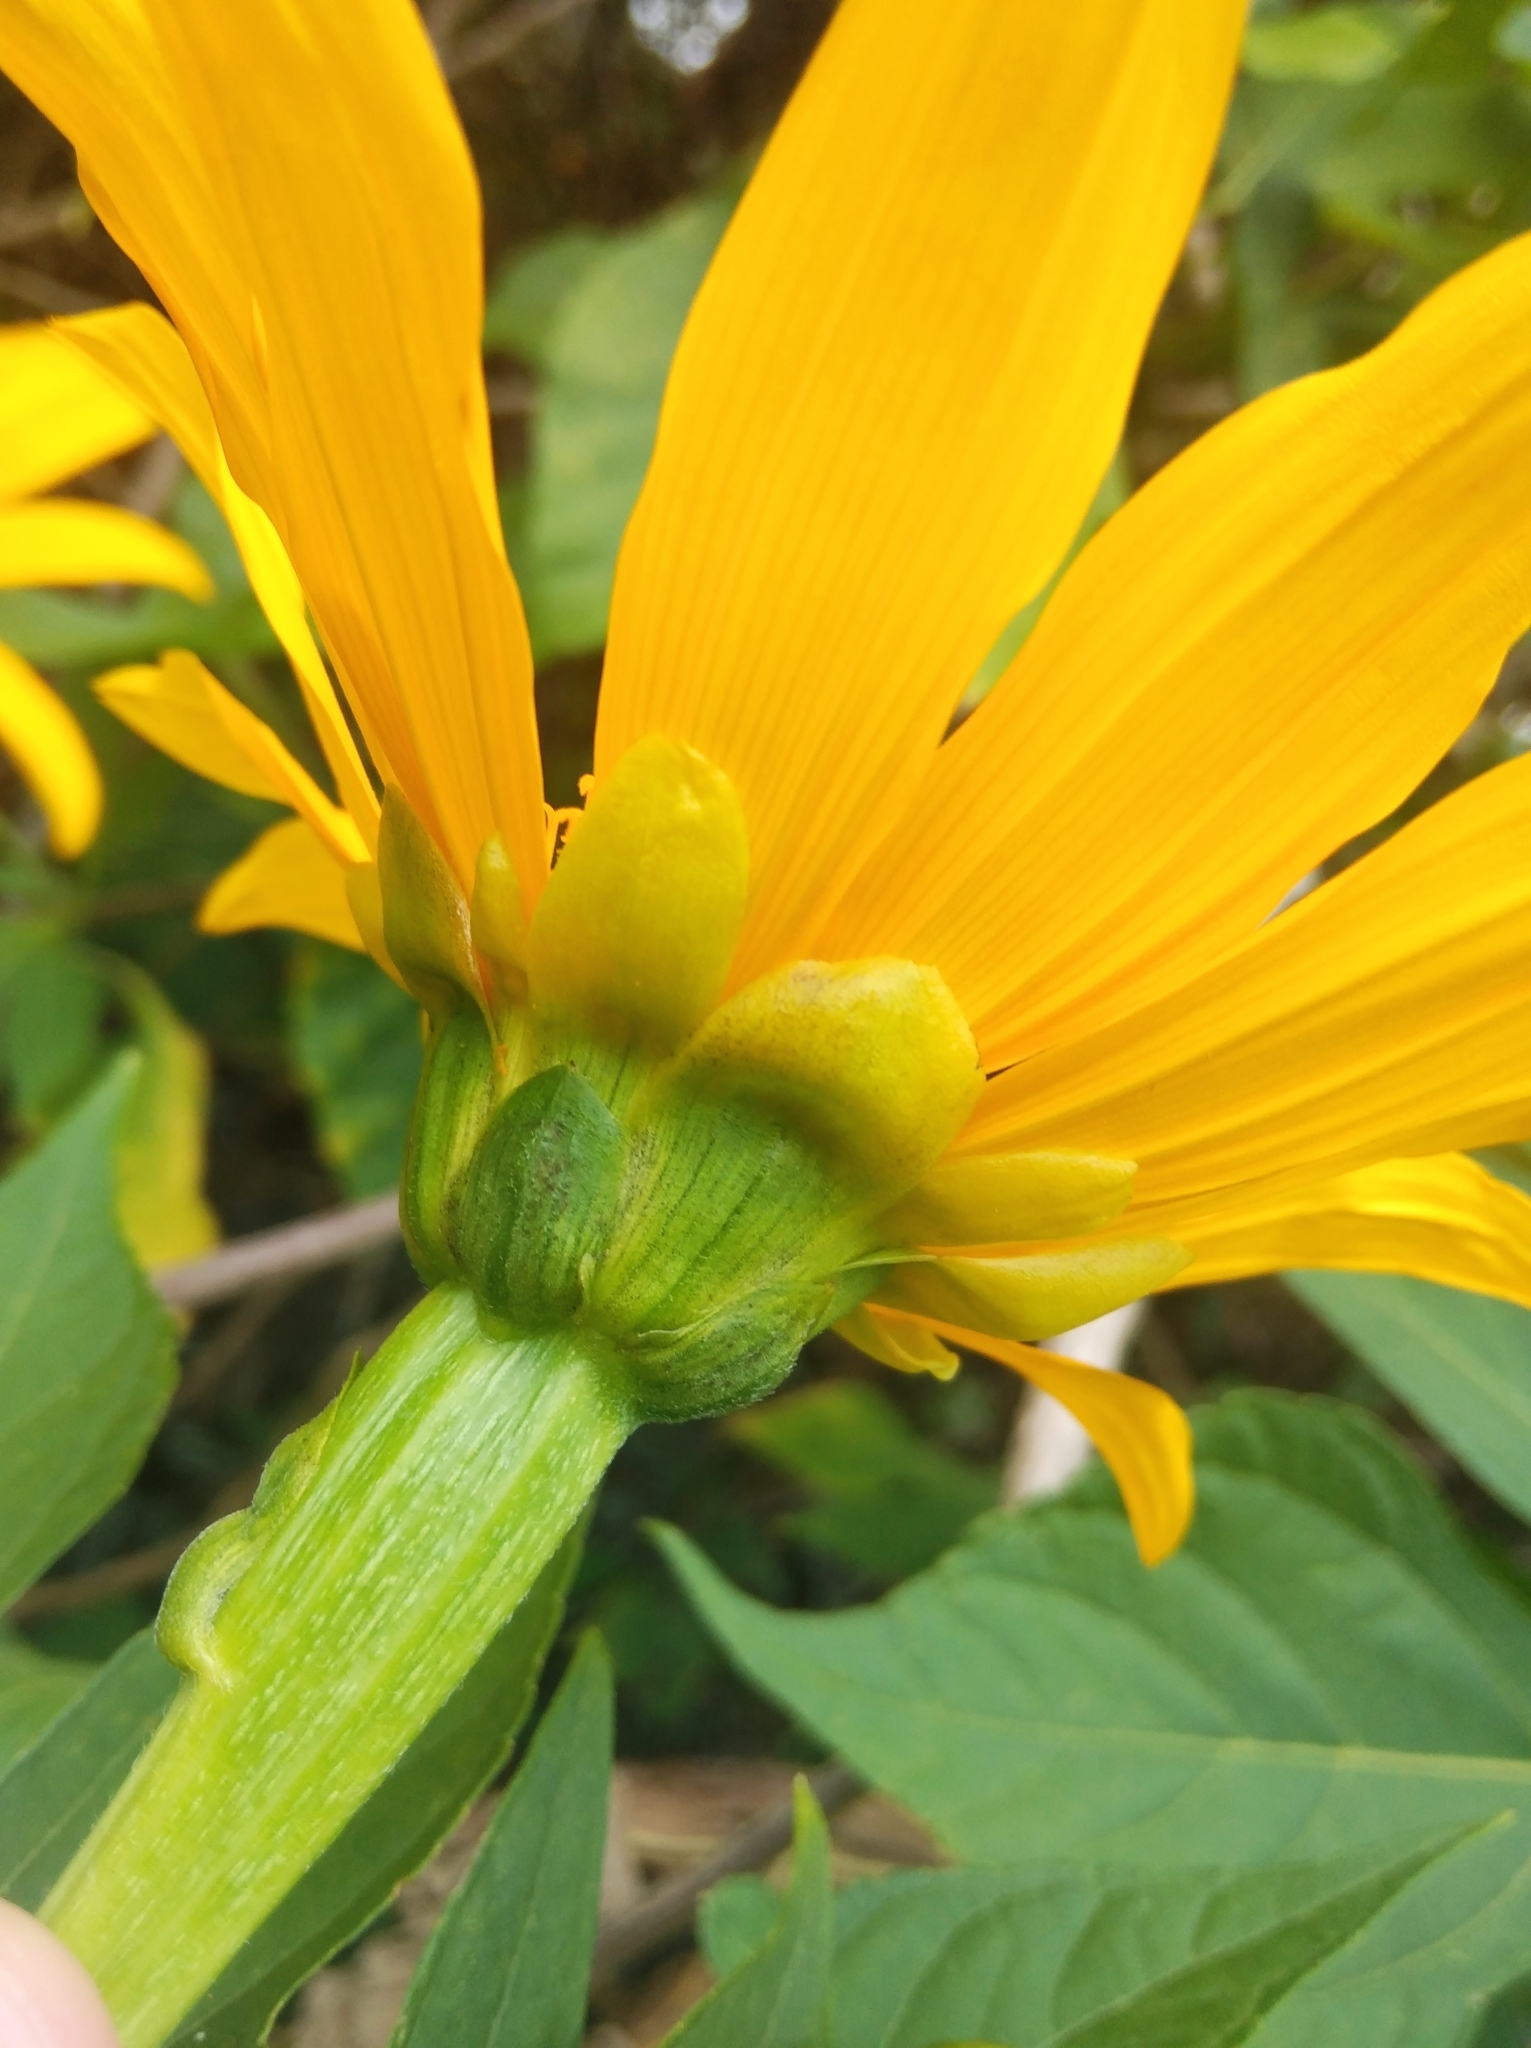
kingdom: Plantae
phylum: Tracheophyta
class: Magnoliopsida
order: Asterales
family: Asteraceae
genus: Tithonia
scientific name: Tithonia diversifolia
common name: Tree marigold
